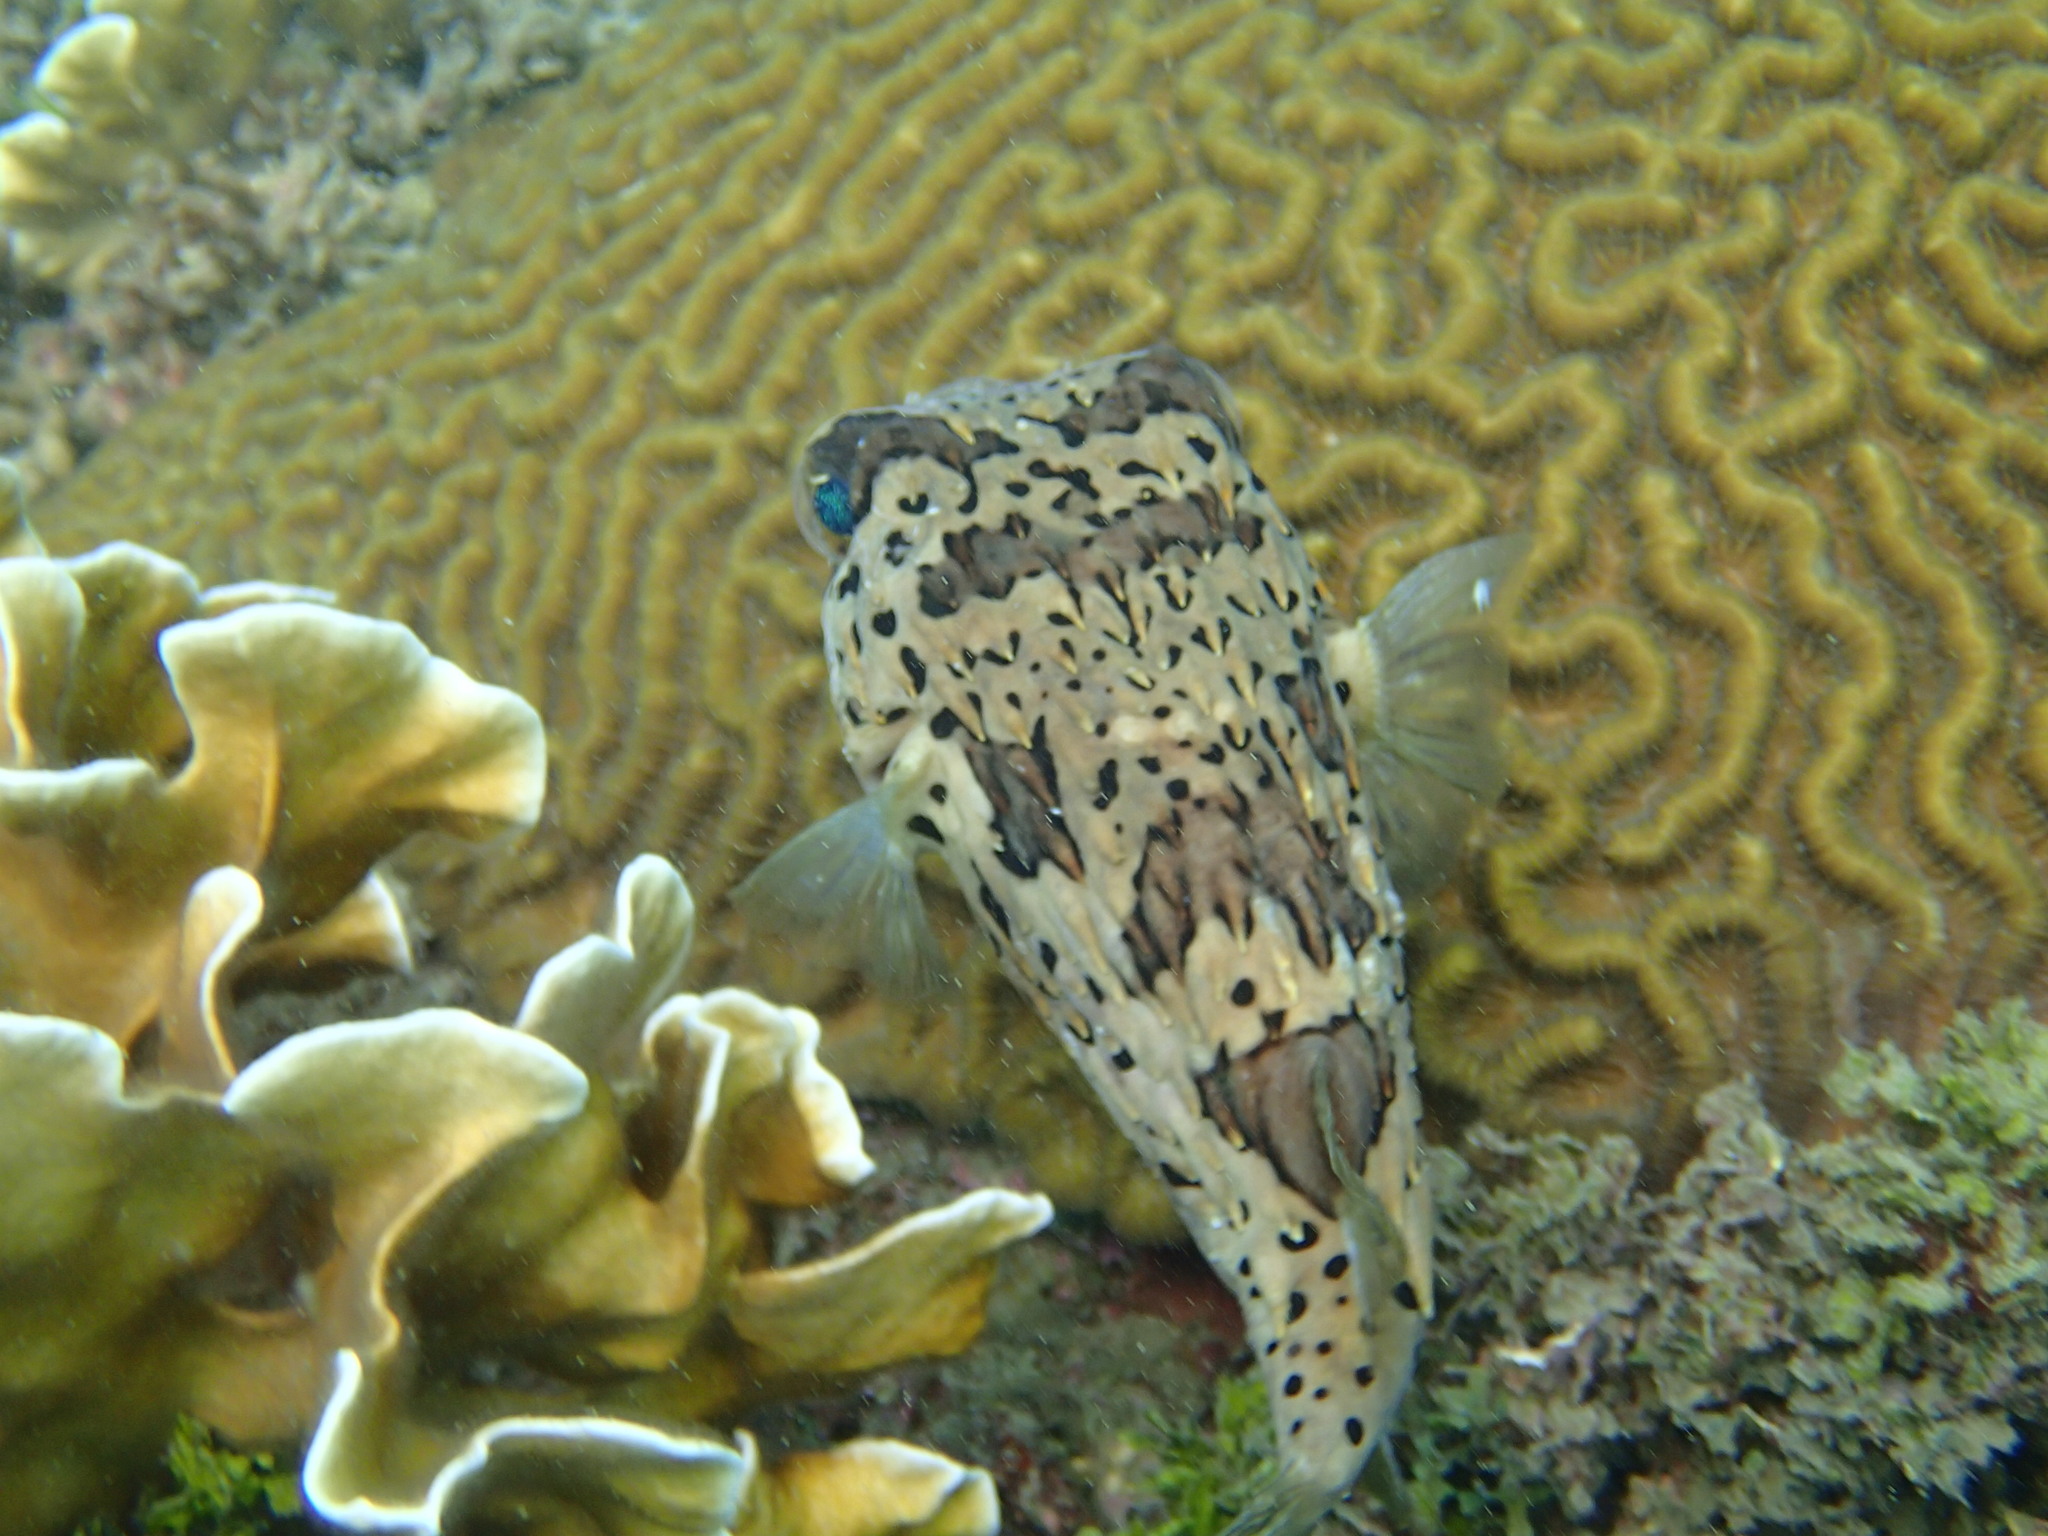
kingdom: Animalia
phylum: Chordata
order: Tetraodontiformes
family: Diodontidae
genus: Diodon
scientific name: Diodon holocanthus
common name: Balloonfish
